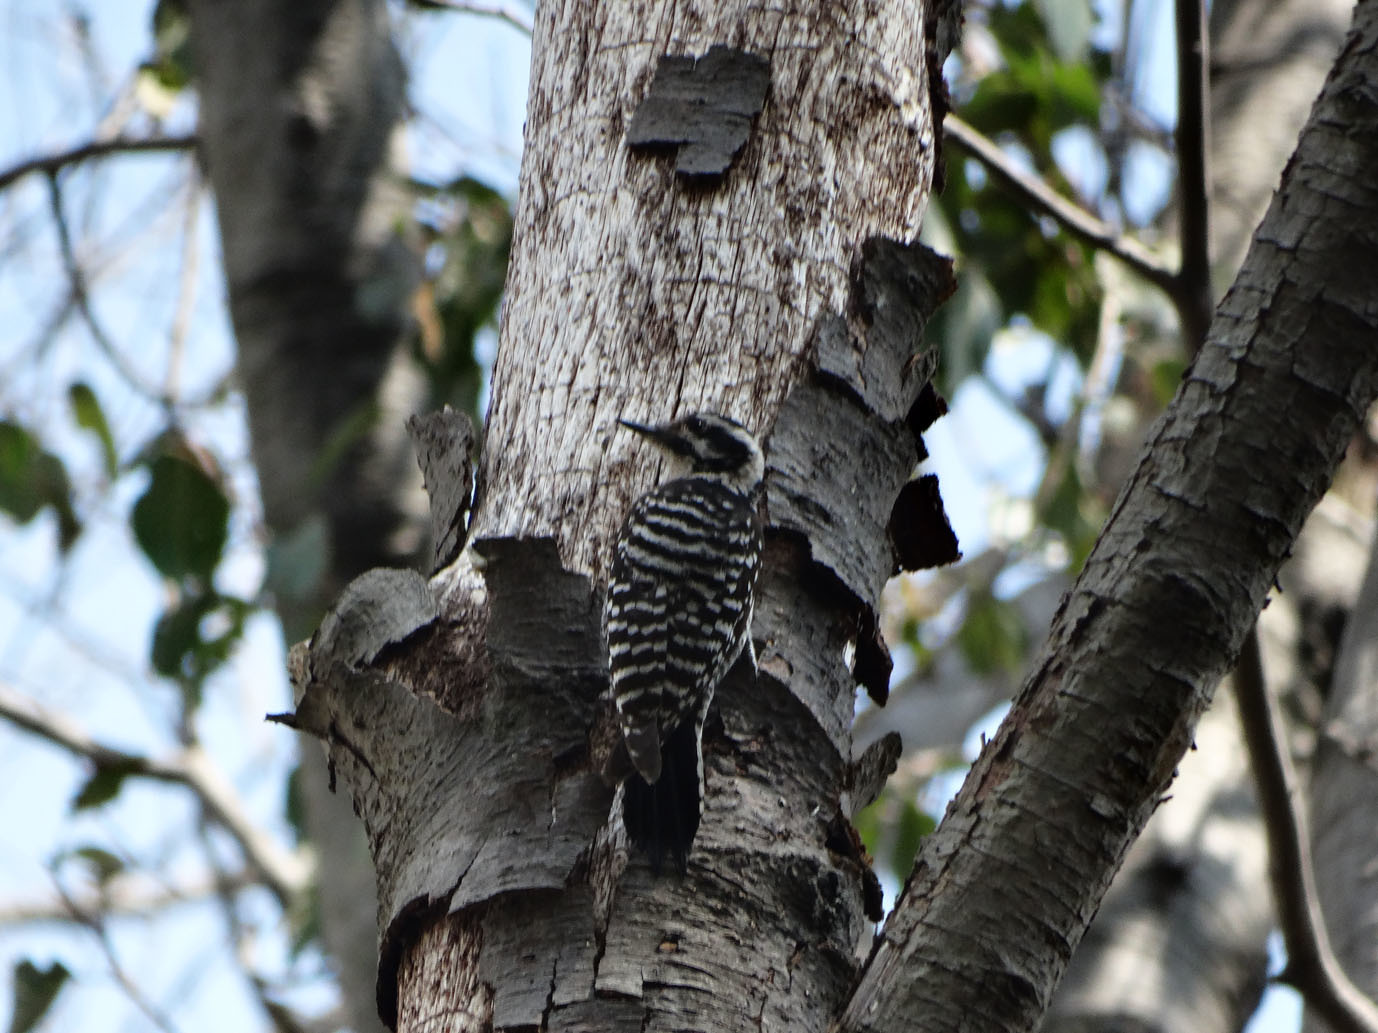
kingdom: Animalia
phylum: Chordata
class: Aves
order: Piciformes
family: Picidae
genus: Dryobates
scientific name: Dryobates scalaris
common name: Ladder-backed woodpecker
